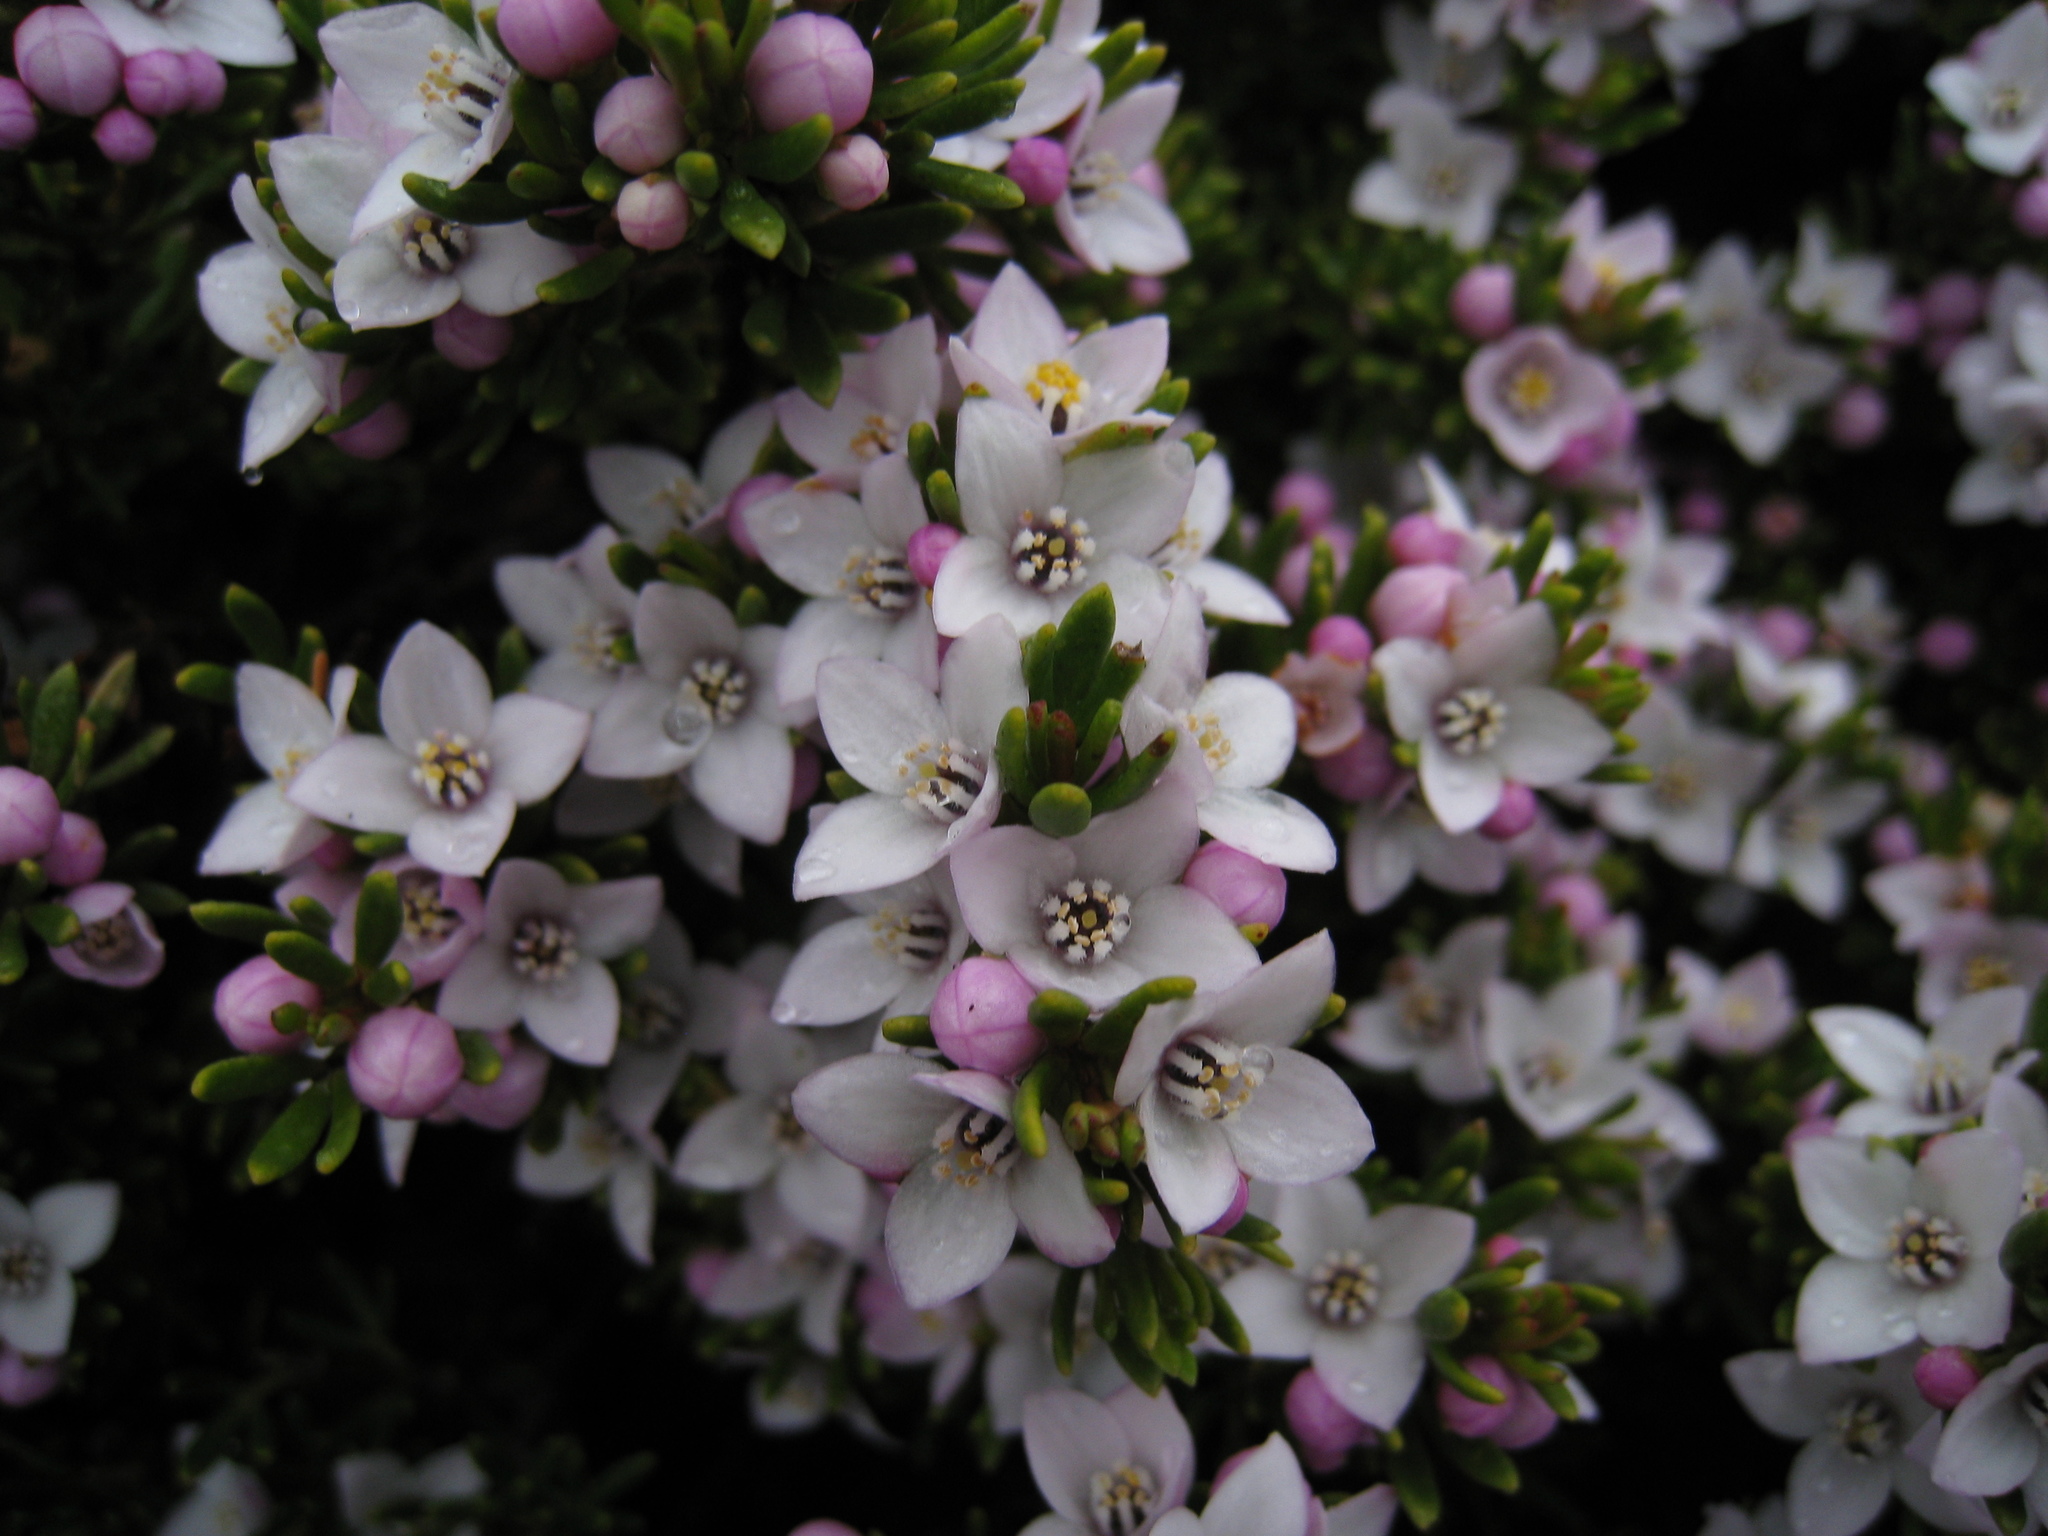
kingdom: Plantae
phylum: Tracheophyta
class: Magnoliopsida
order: Sapindales
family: Rutaceae
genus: Boronia
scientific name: Boronia citriodora
